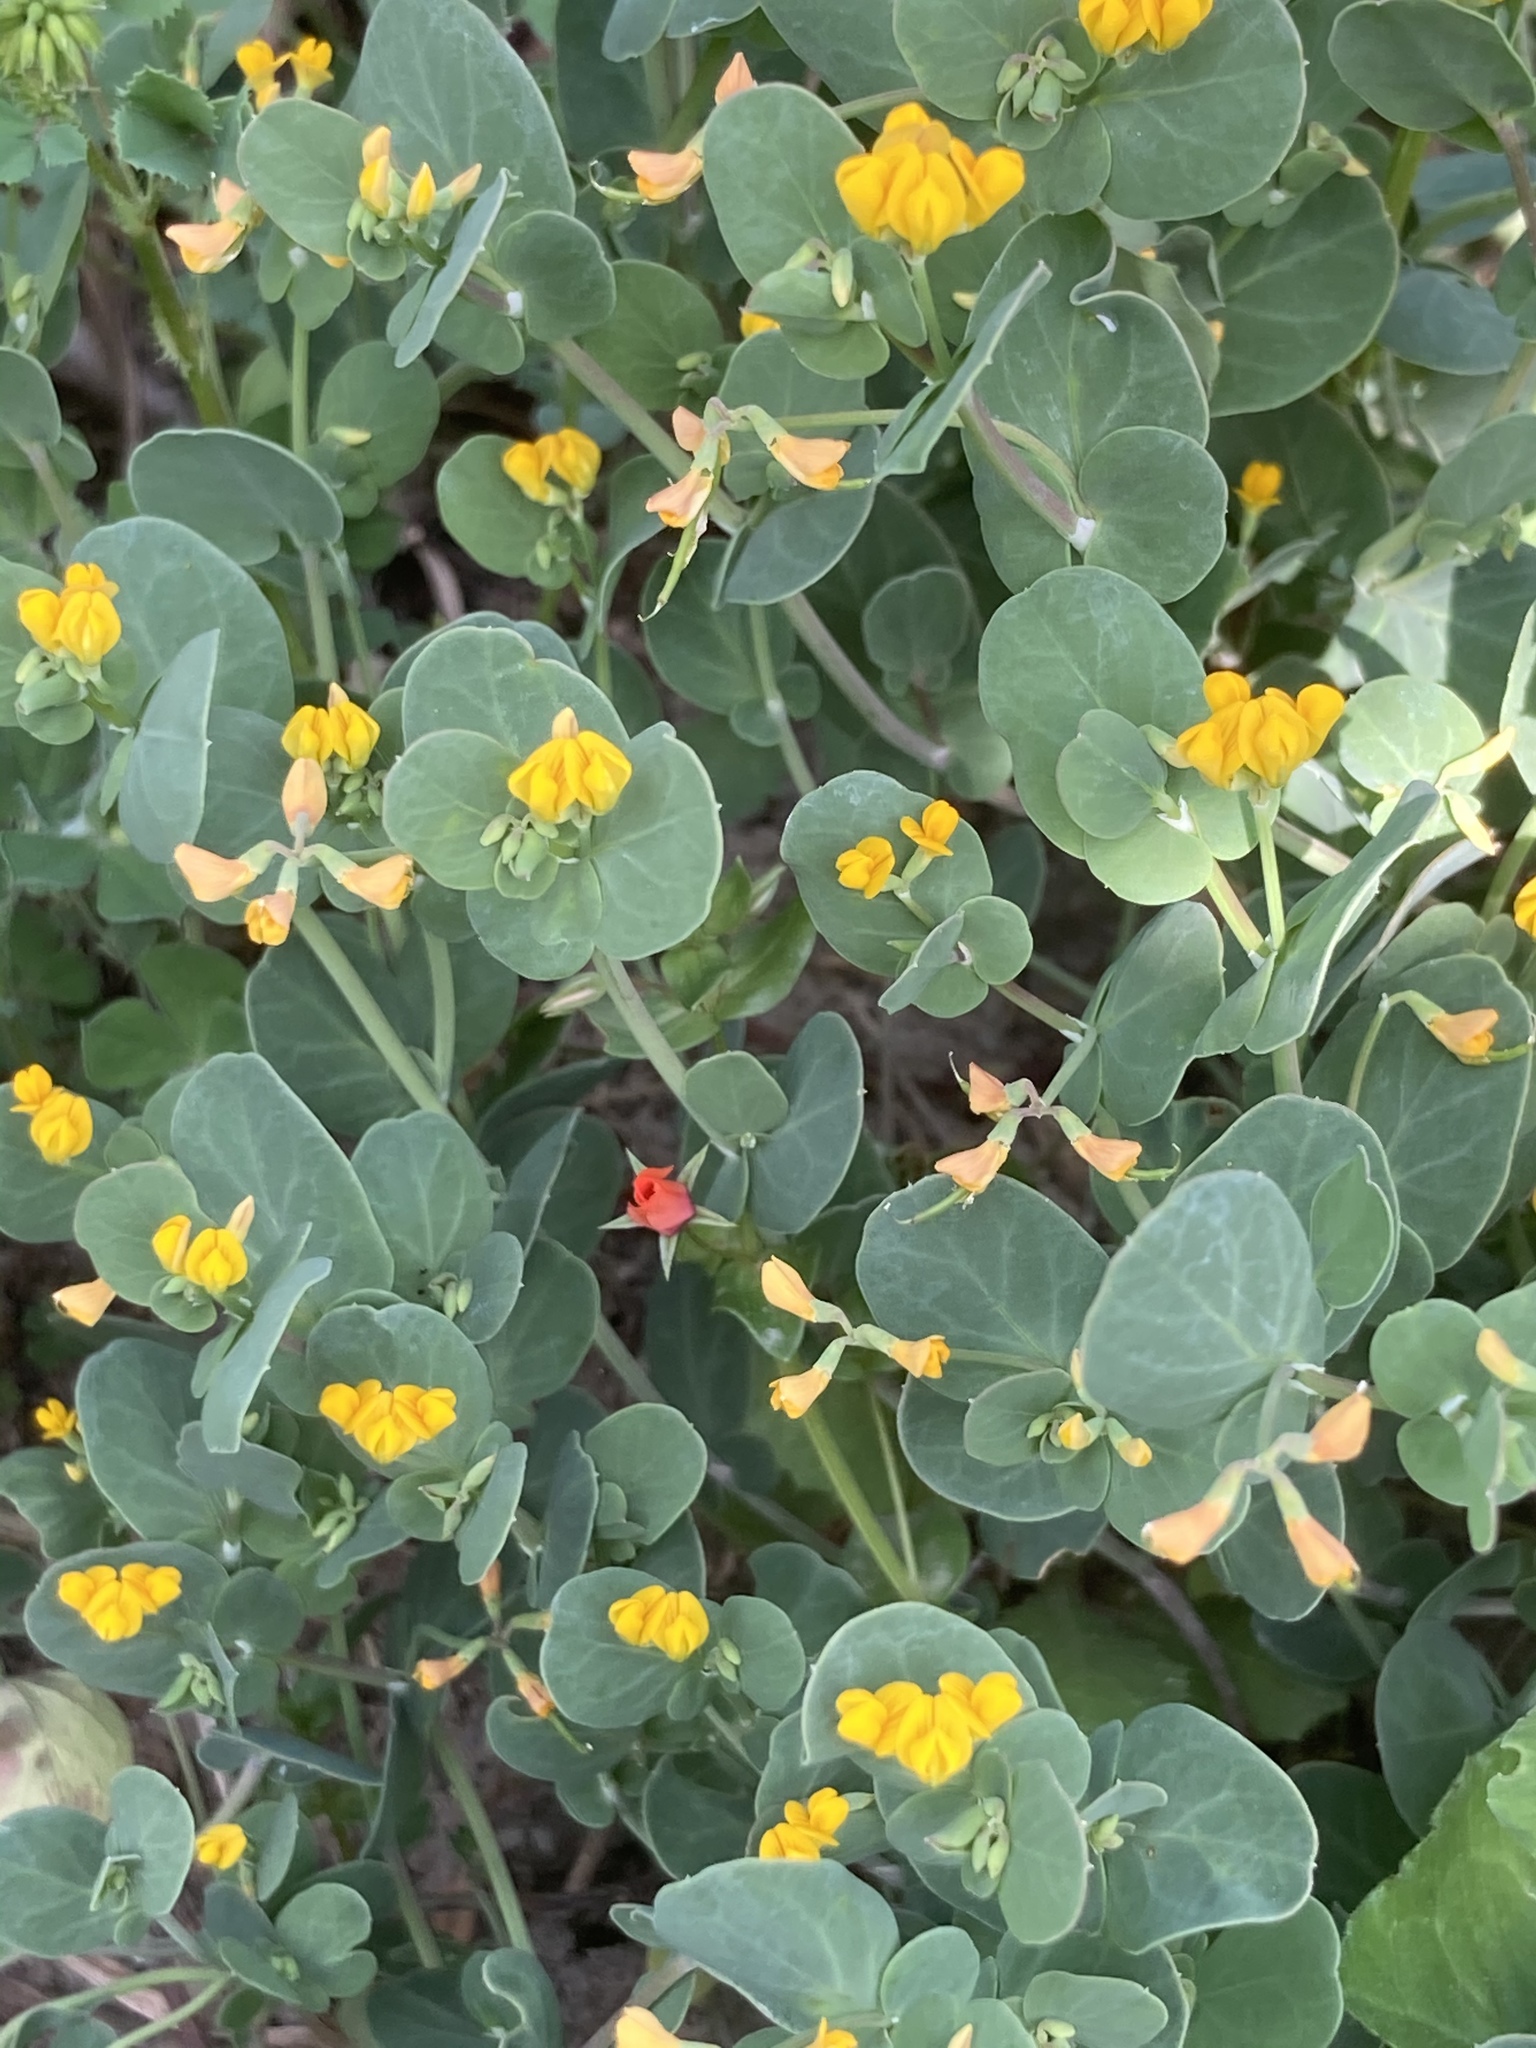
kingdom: Plantae
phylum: Tracheophyta
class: Magnoliopsida
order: Ericales
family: Primulaceae
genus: Lysimachia
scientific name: Lysimachia arvensis
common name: Scarlet pimpernel
